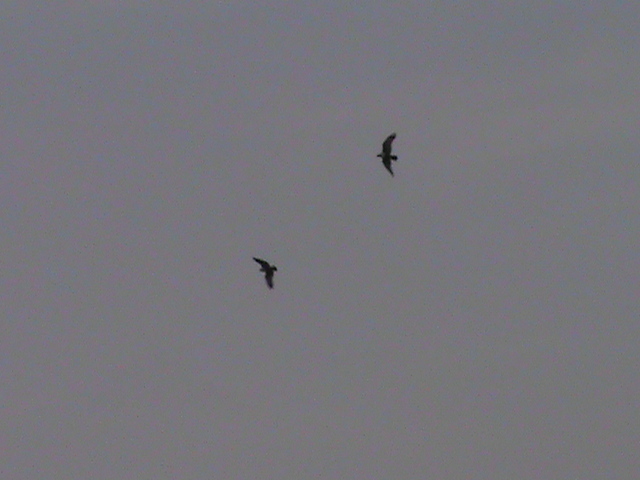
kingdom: Animalia
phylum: Chordata
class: Aves
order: Accipitriformes
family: Accipitridae
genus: Haliastur
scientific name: Haliastur indus
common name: Brahminy kite
